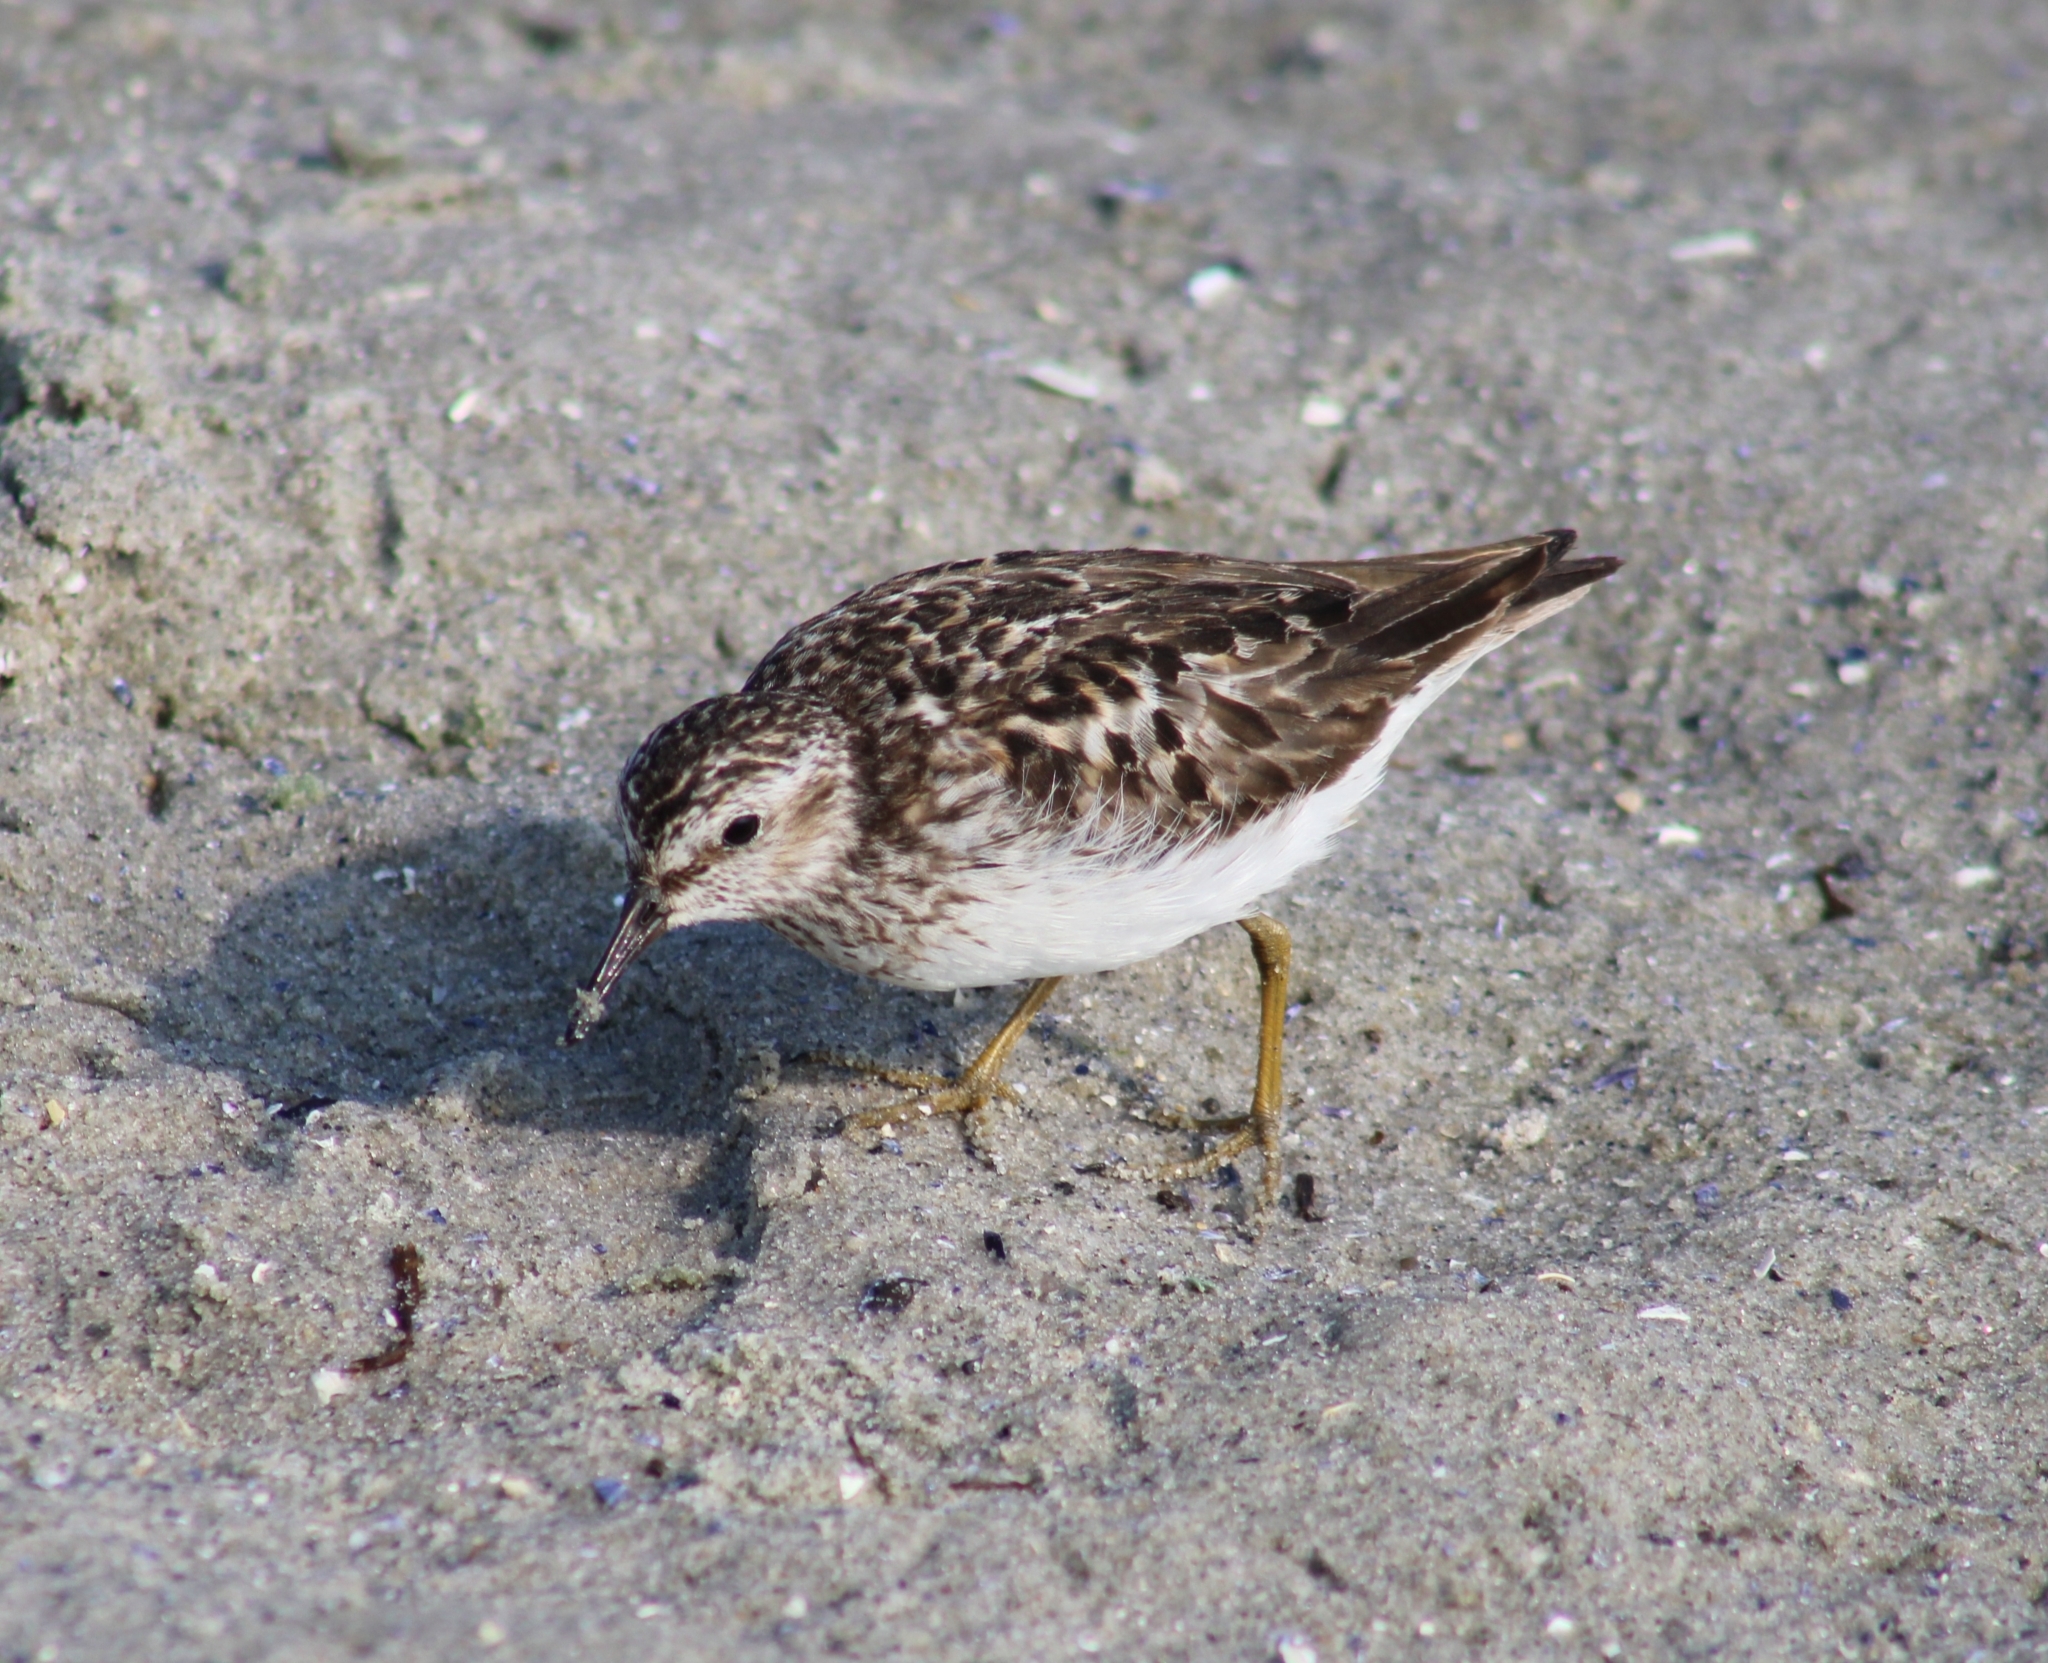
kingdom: Animalia
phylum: Chordata
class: Aves
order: Charadriiformes
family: Scolopacidae
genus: Calidris
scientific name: Calidris minutilla
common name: Least sandpiper
